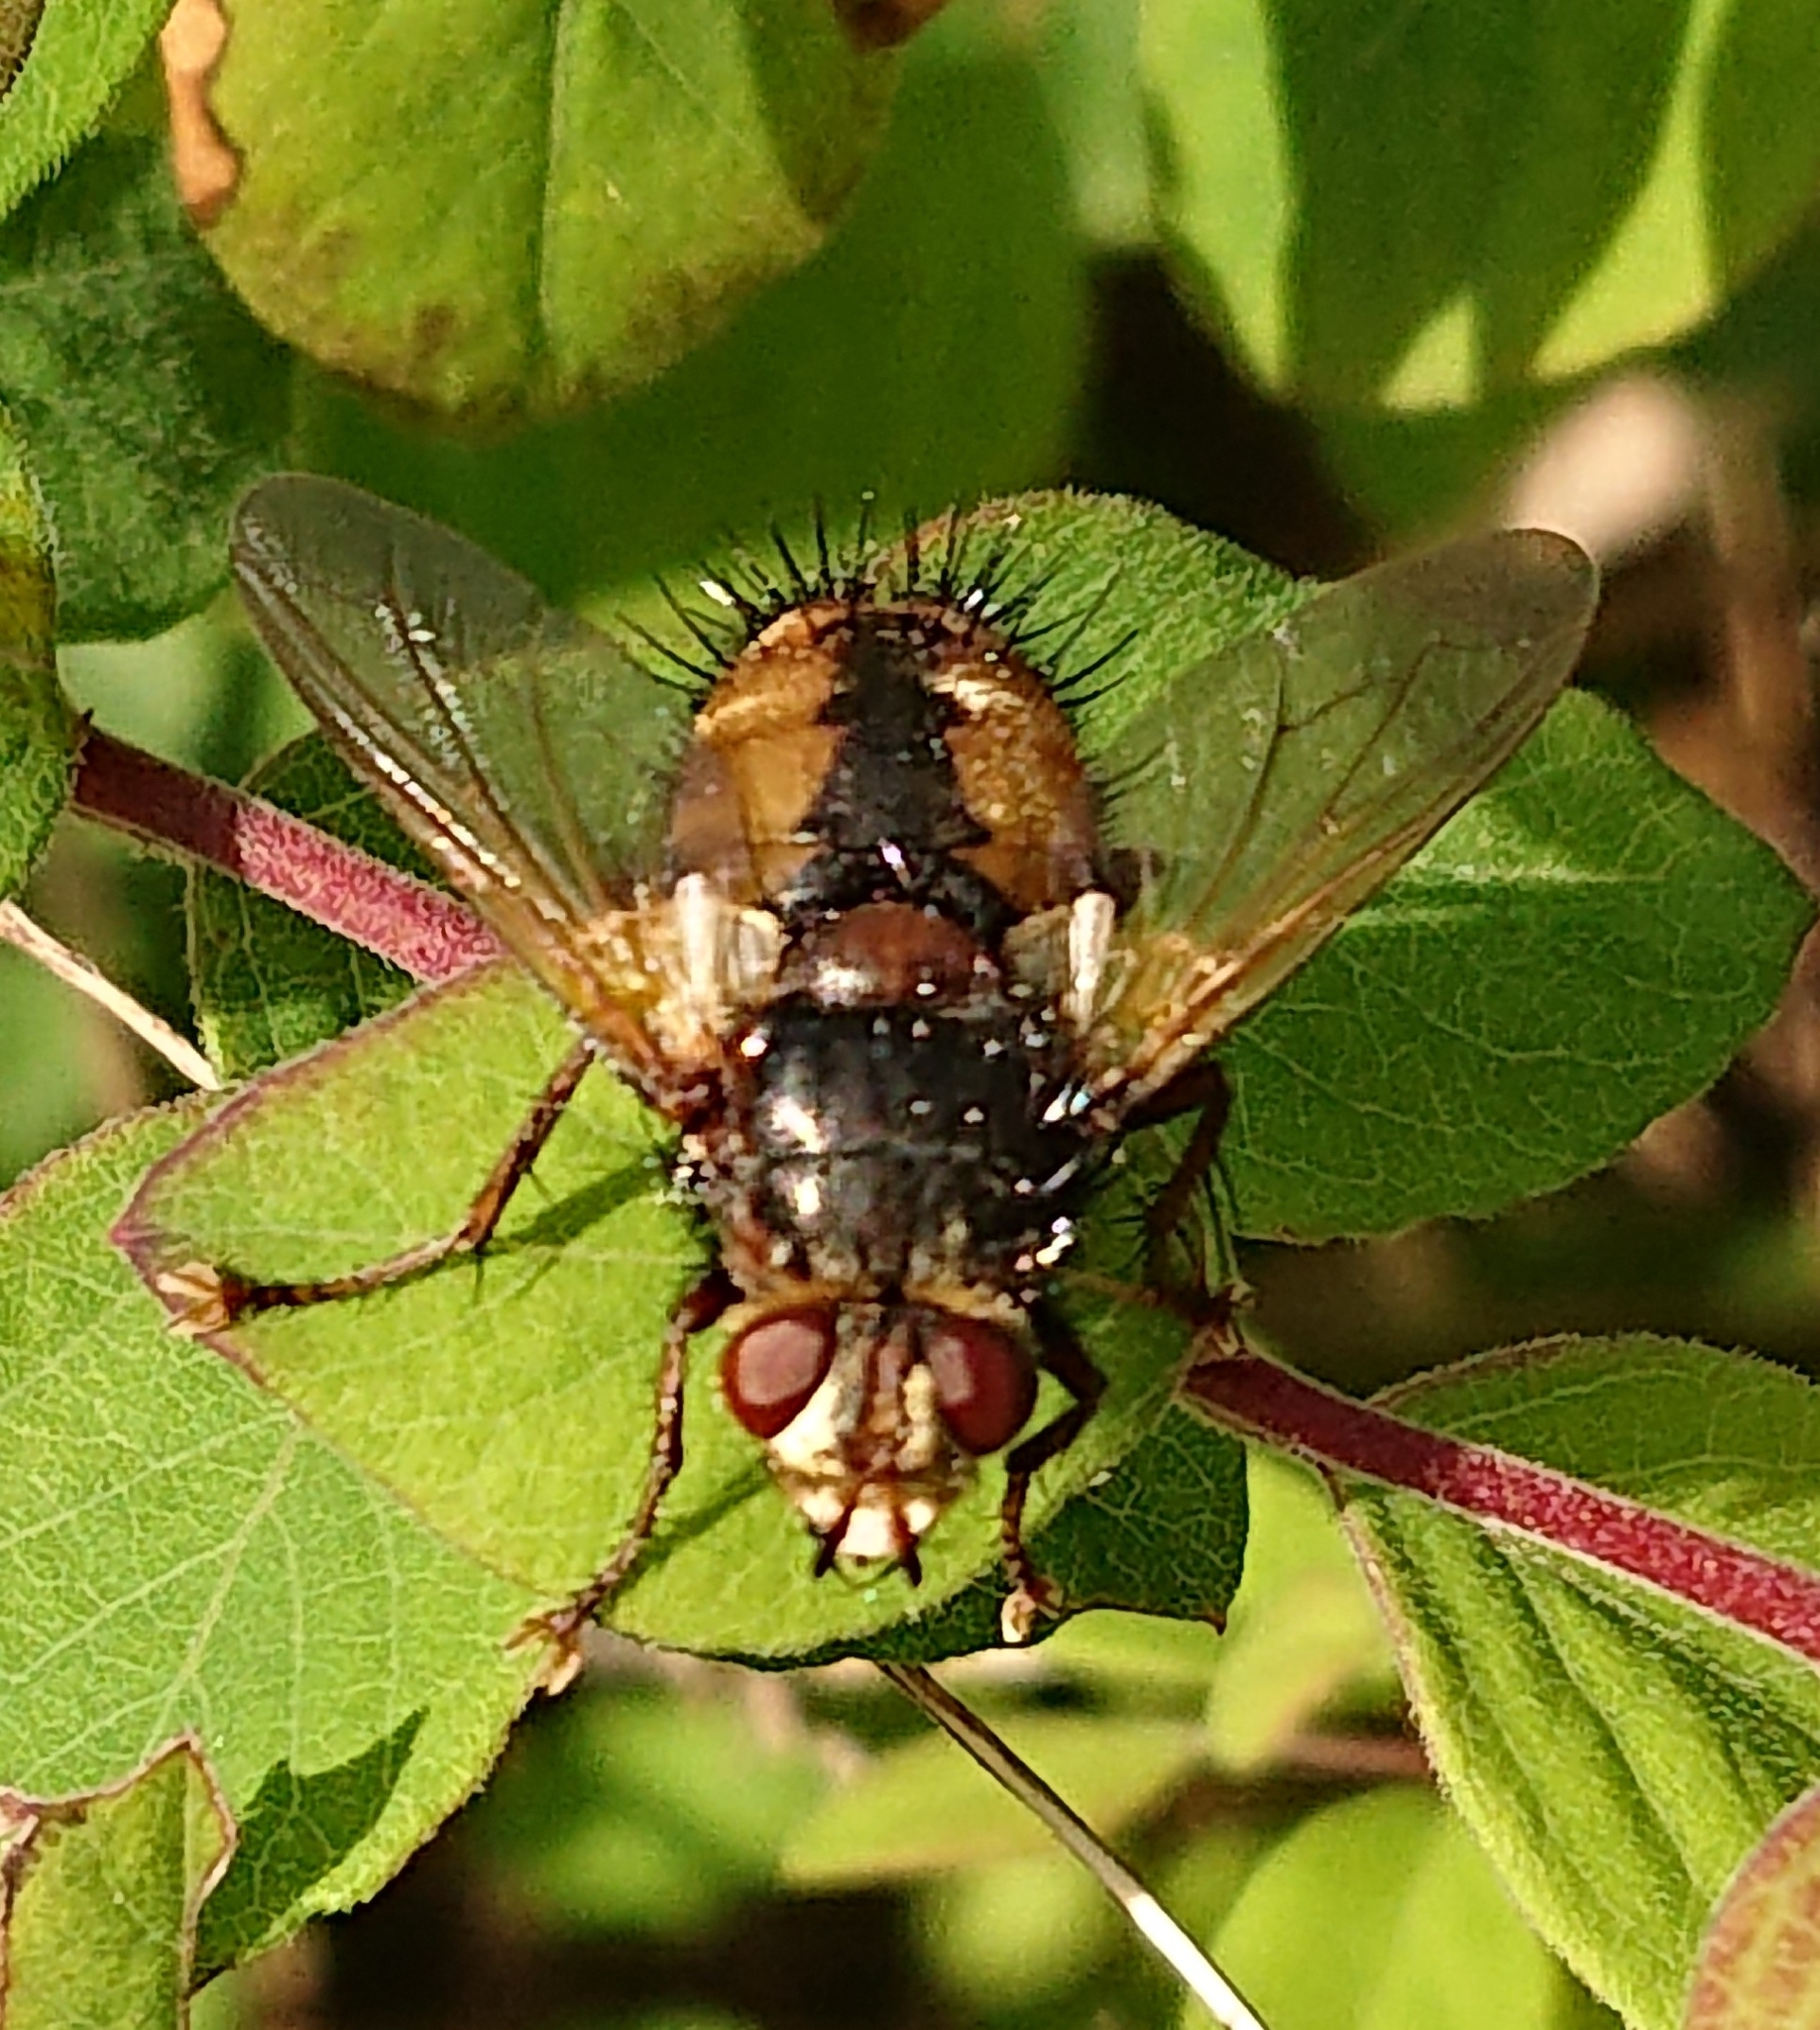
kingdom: Animalia
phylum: Arthropoda
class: Insecta
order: Diptera
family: Tachinidae
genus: Tachina
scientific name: Tachina fera
